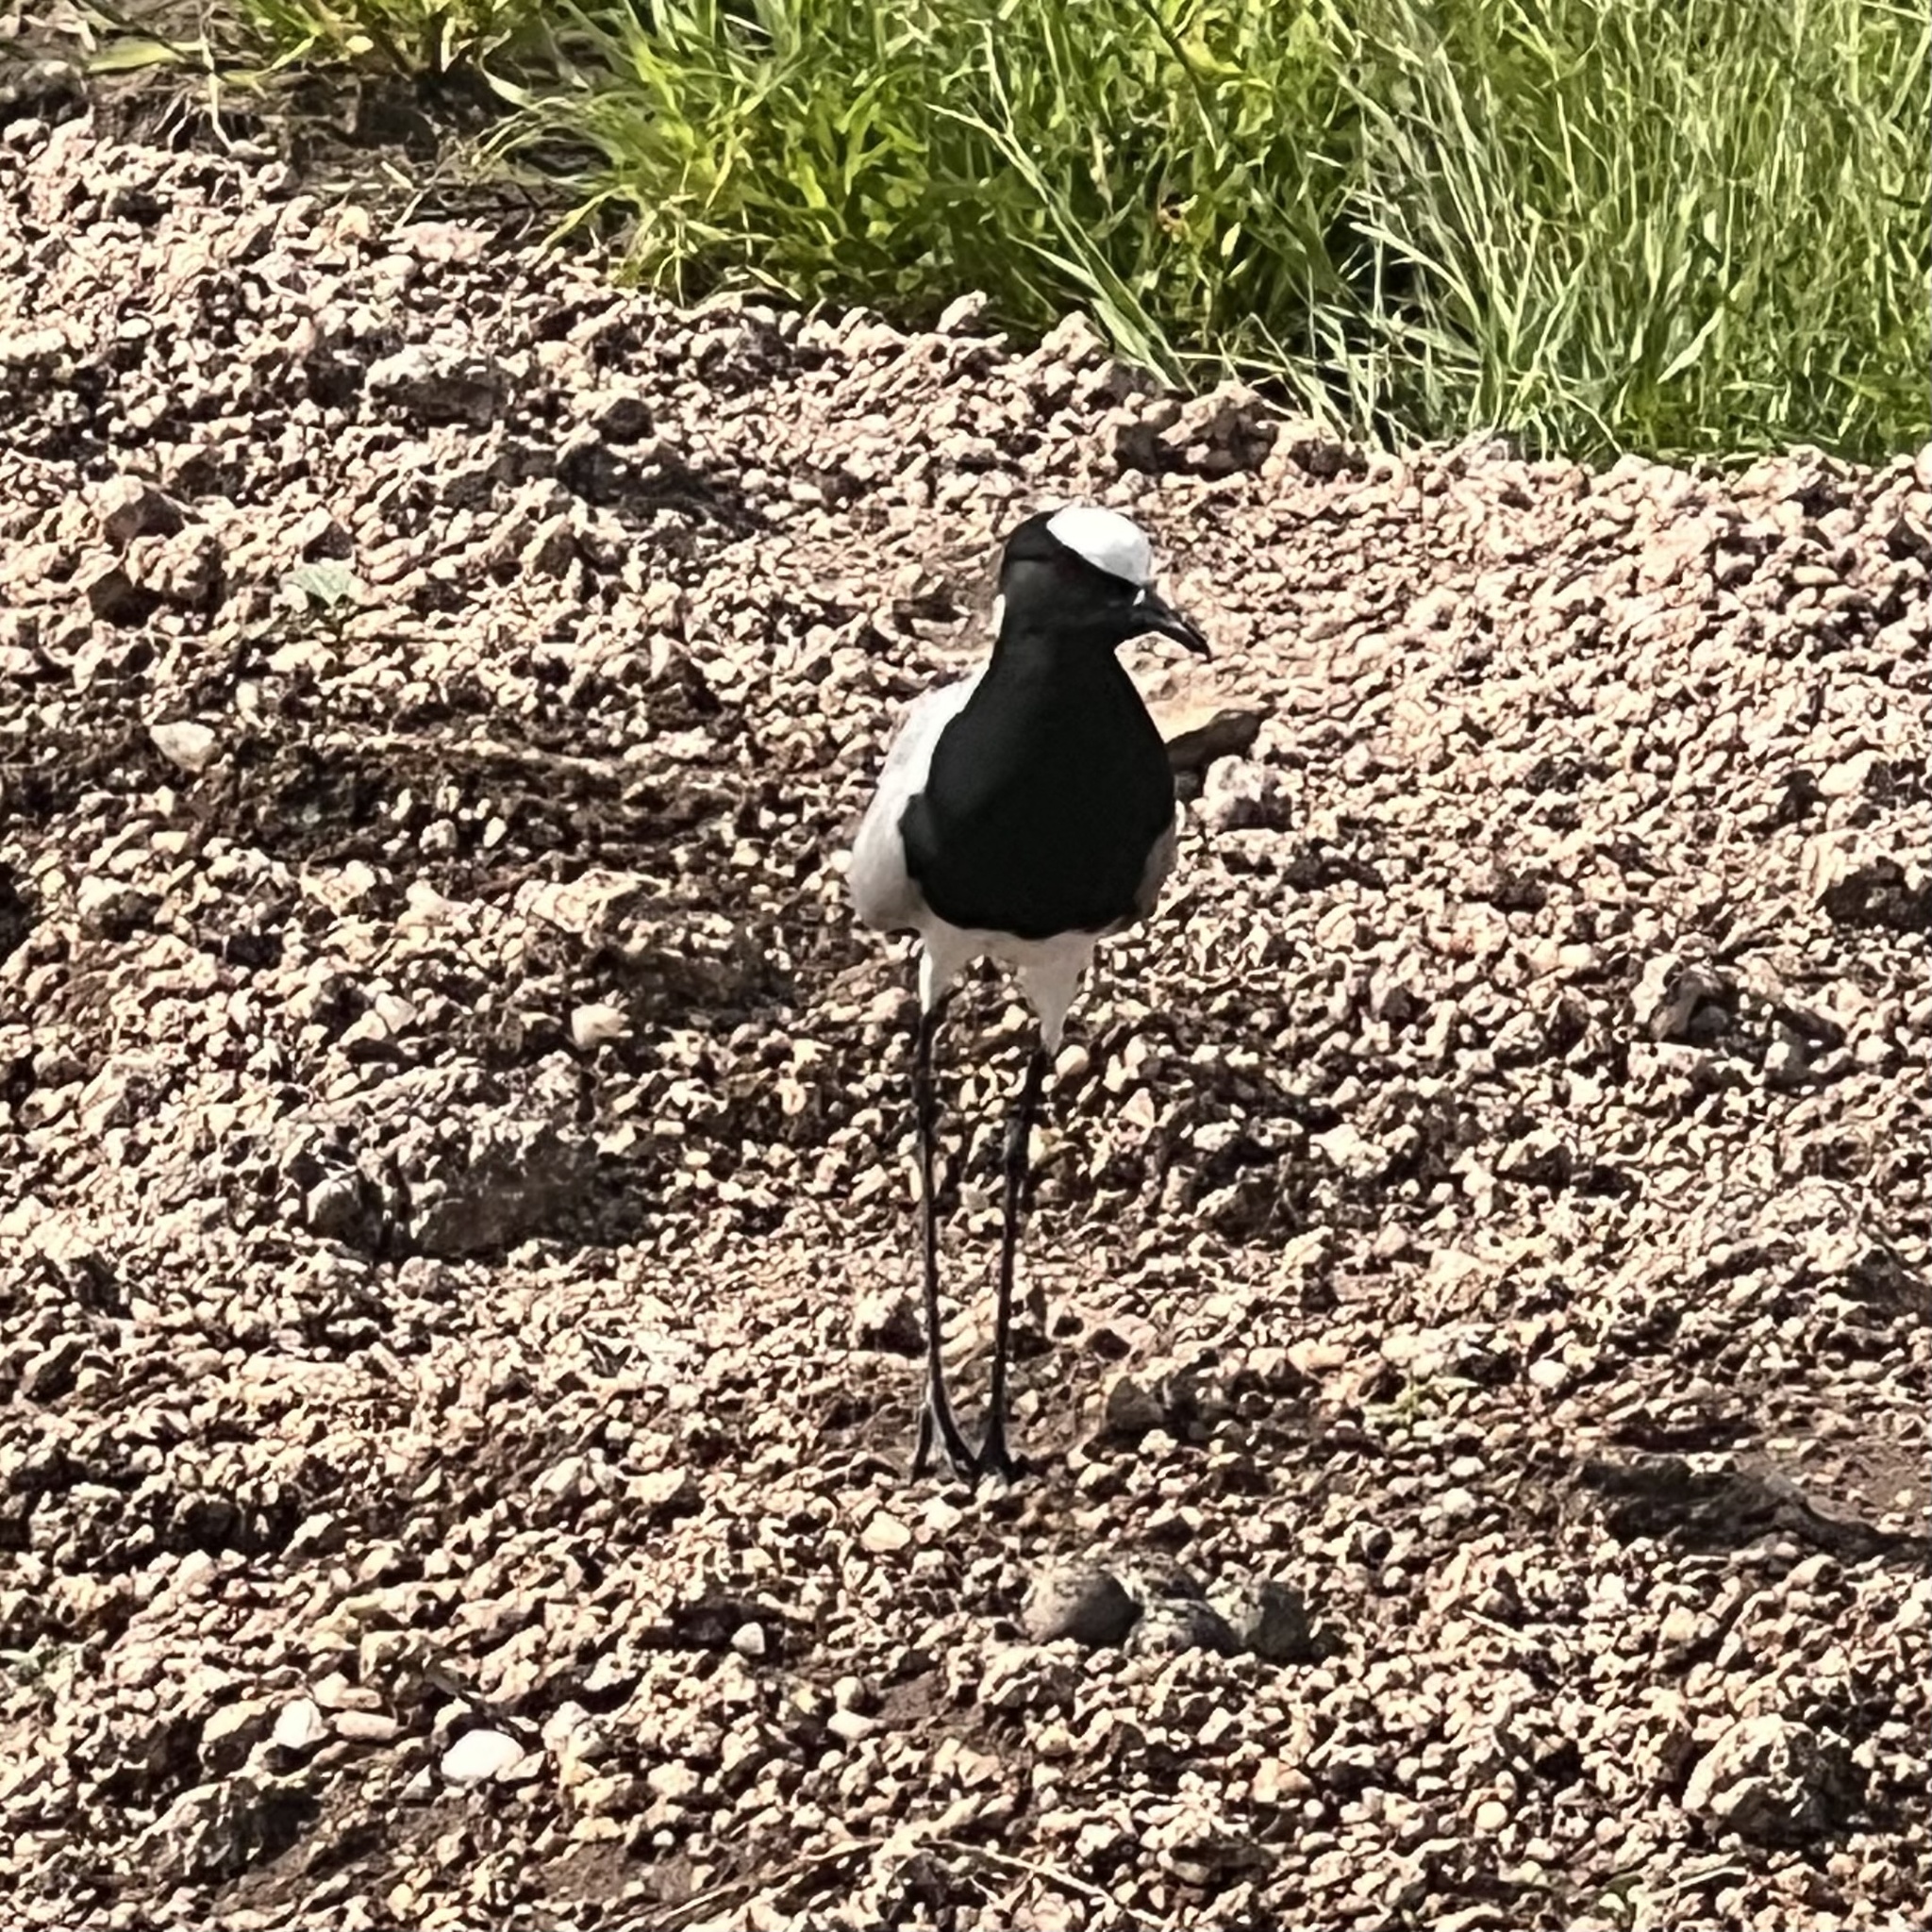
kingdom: Animalia
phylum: Chordata
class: Aves
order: Charadriiformes
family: Charadriidae
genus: Vanellus
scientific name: Vanellus armatus
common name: Blacksmith lapwing
